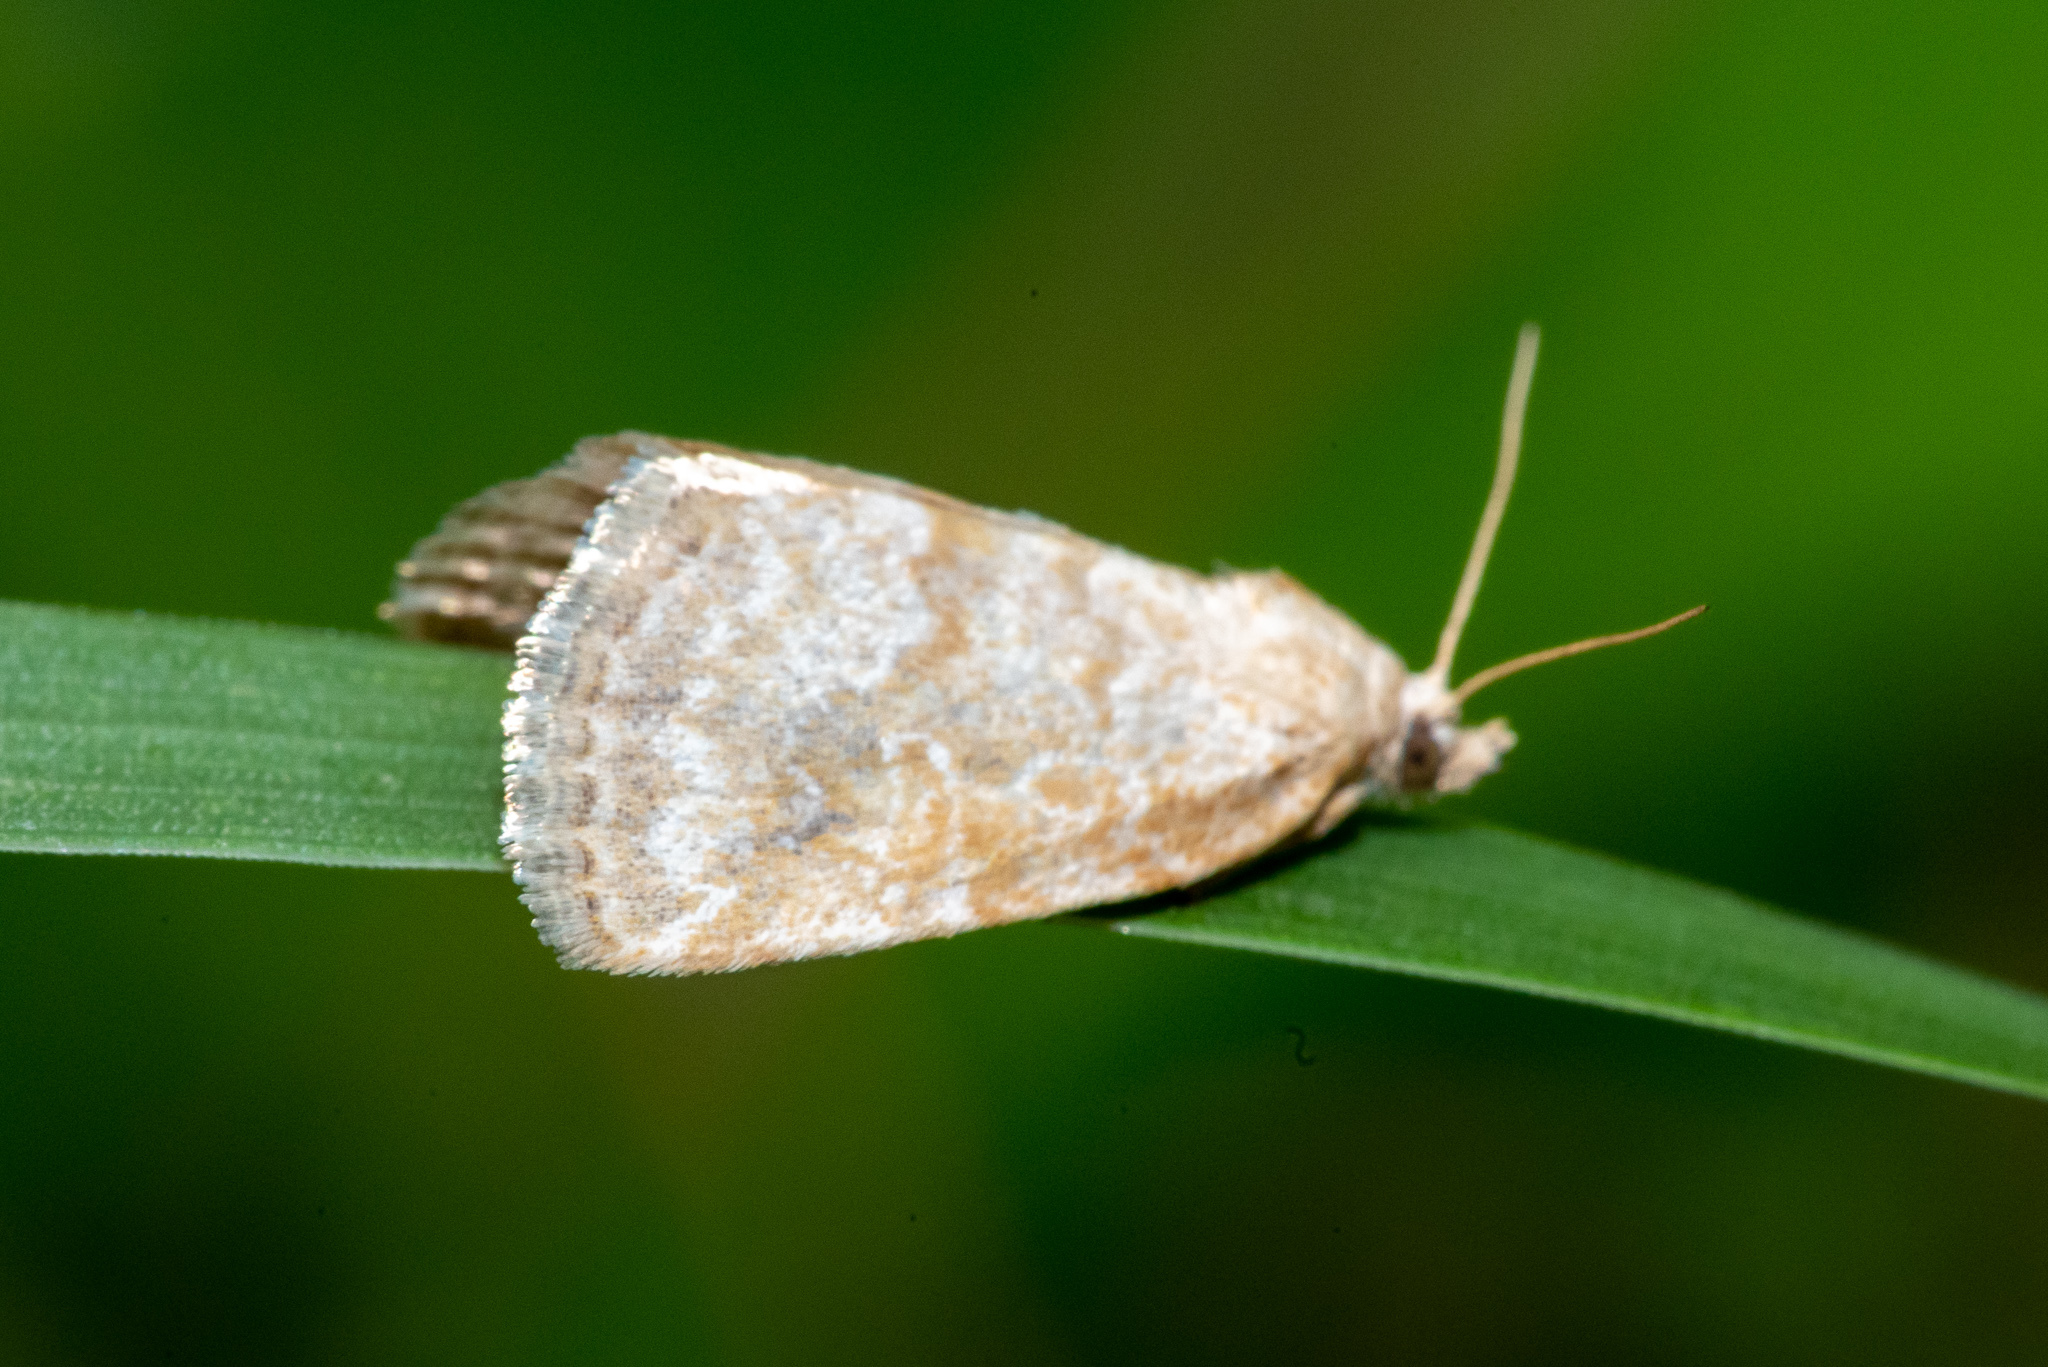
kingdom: Animalia
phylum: Arthropoda
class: Insecta
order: Lepidoptera
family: Noctuidae
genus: Protodeltote
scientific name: Protodeltote albidula
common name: Pale glyph
